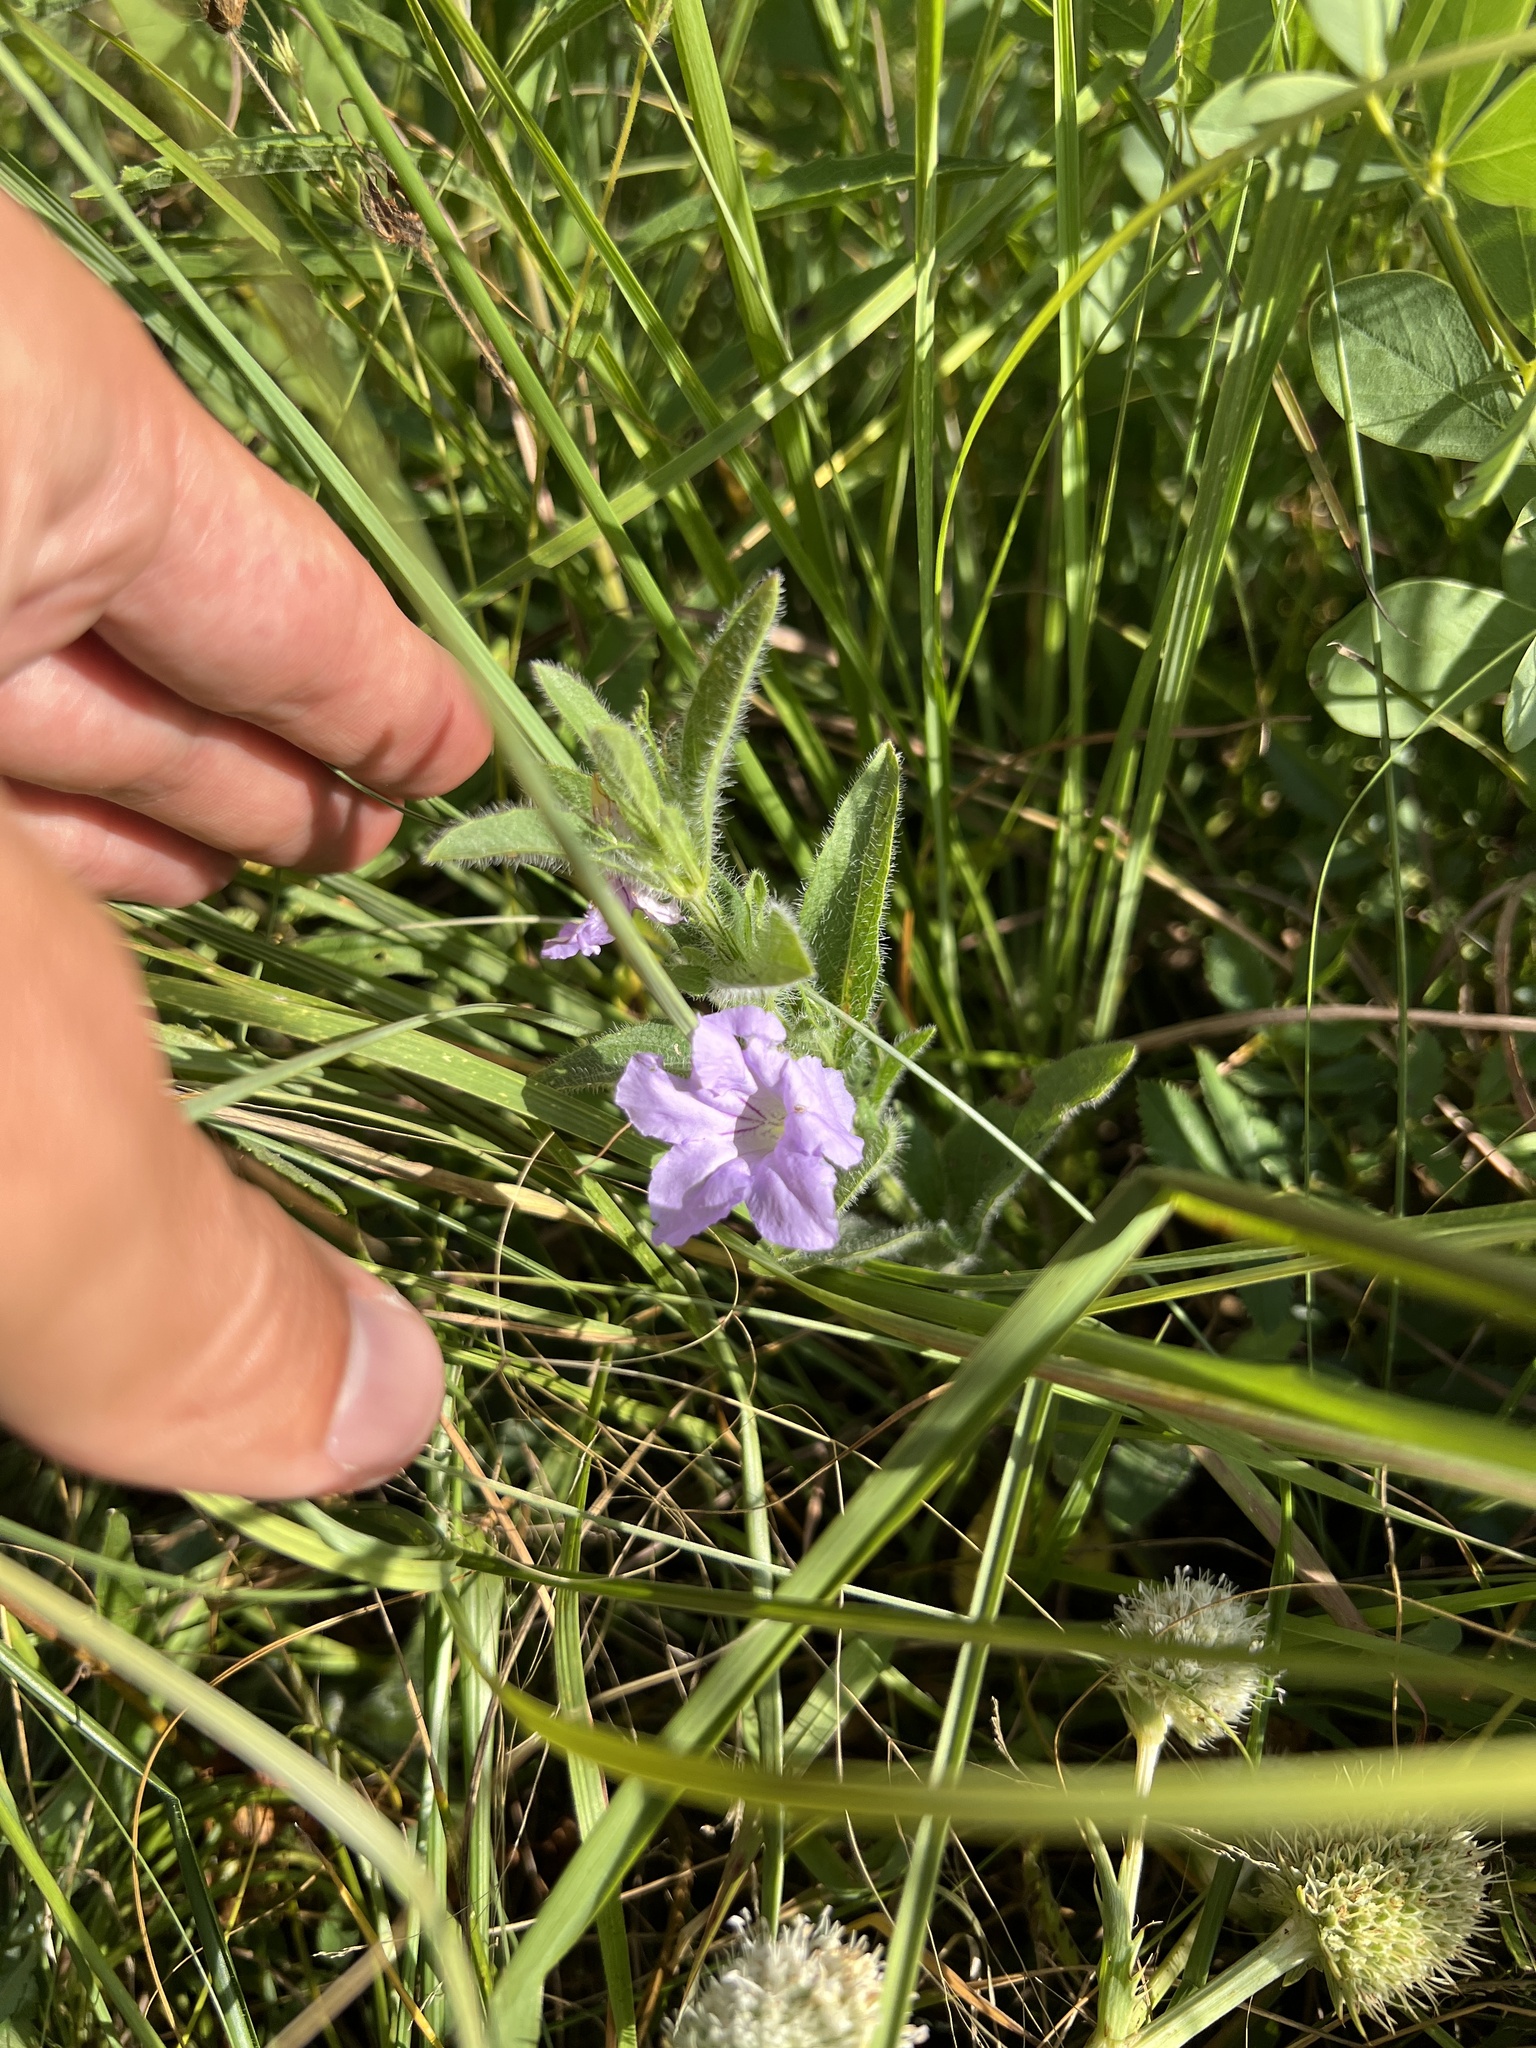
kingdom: Plantae
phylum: Tracheophyta
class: Magnoliopsida
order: Lamiales
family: Acanthaceae
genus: Ruellia
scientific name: Ruellia humilis
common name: Fringe-leaf ruellia
